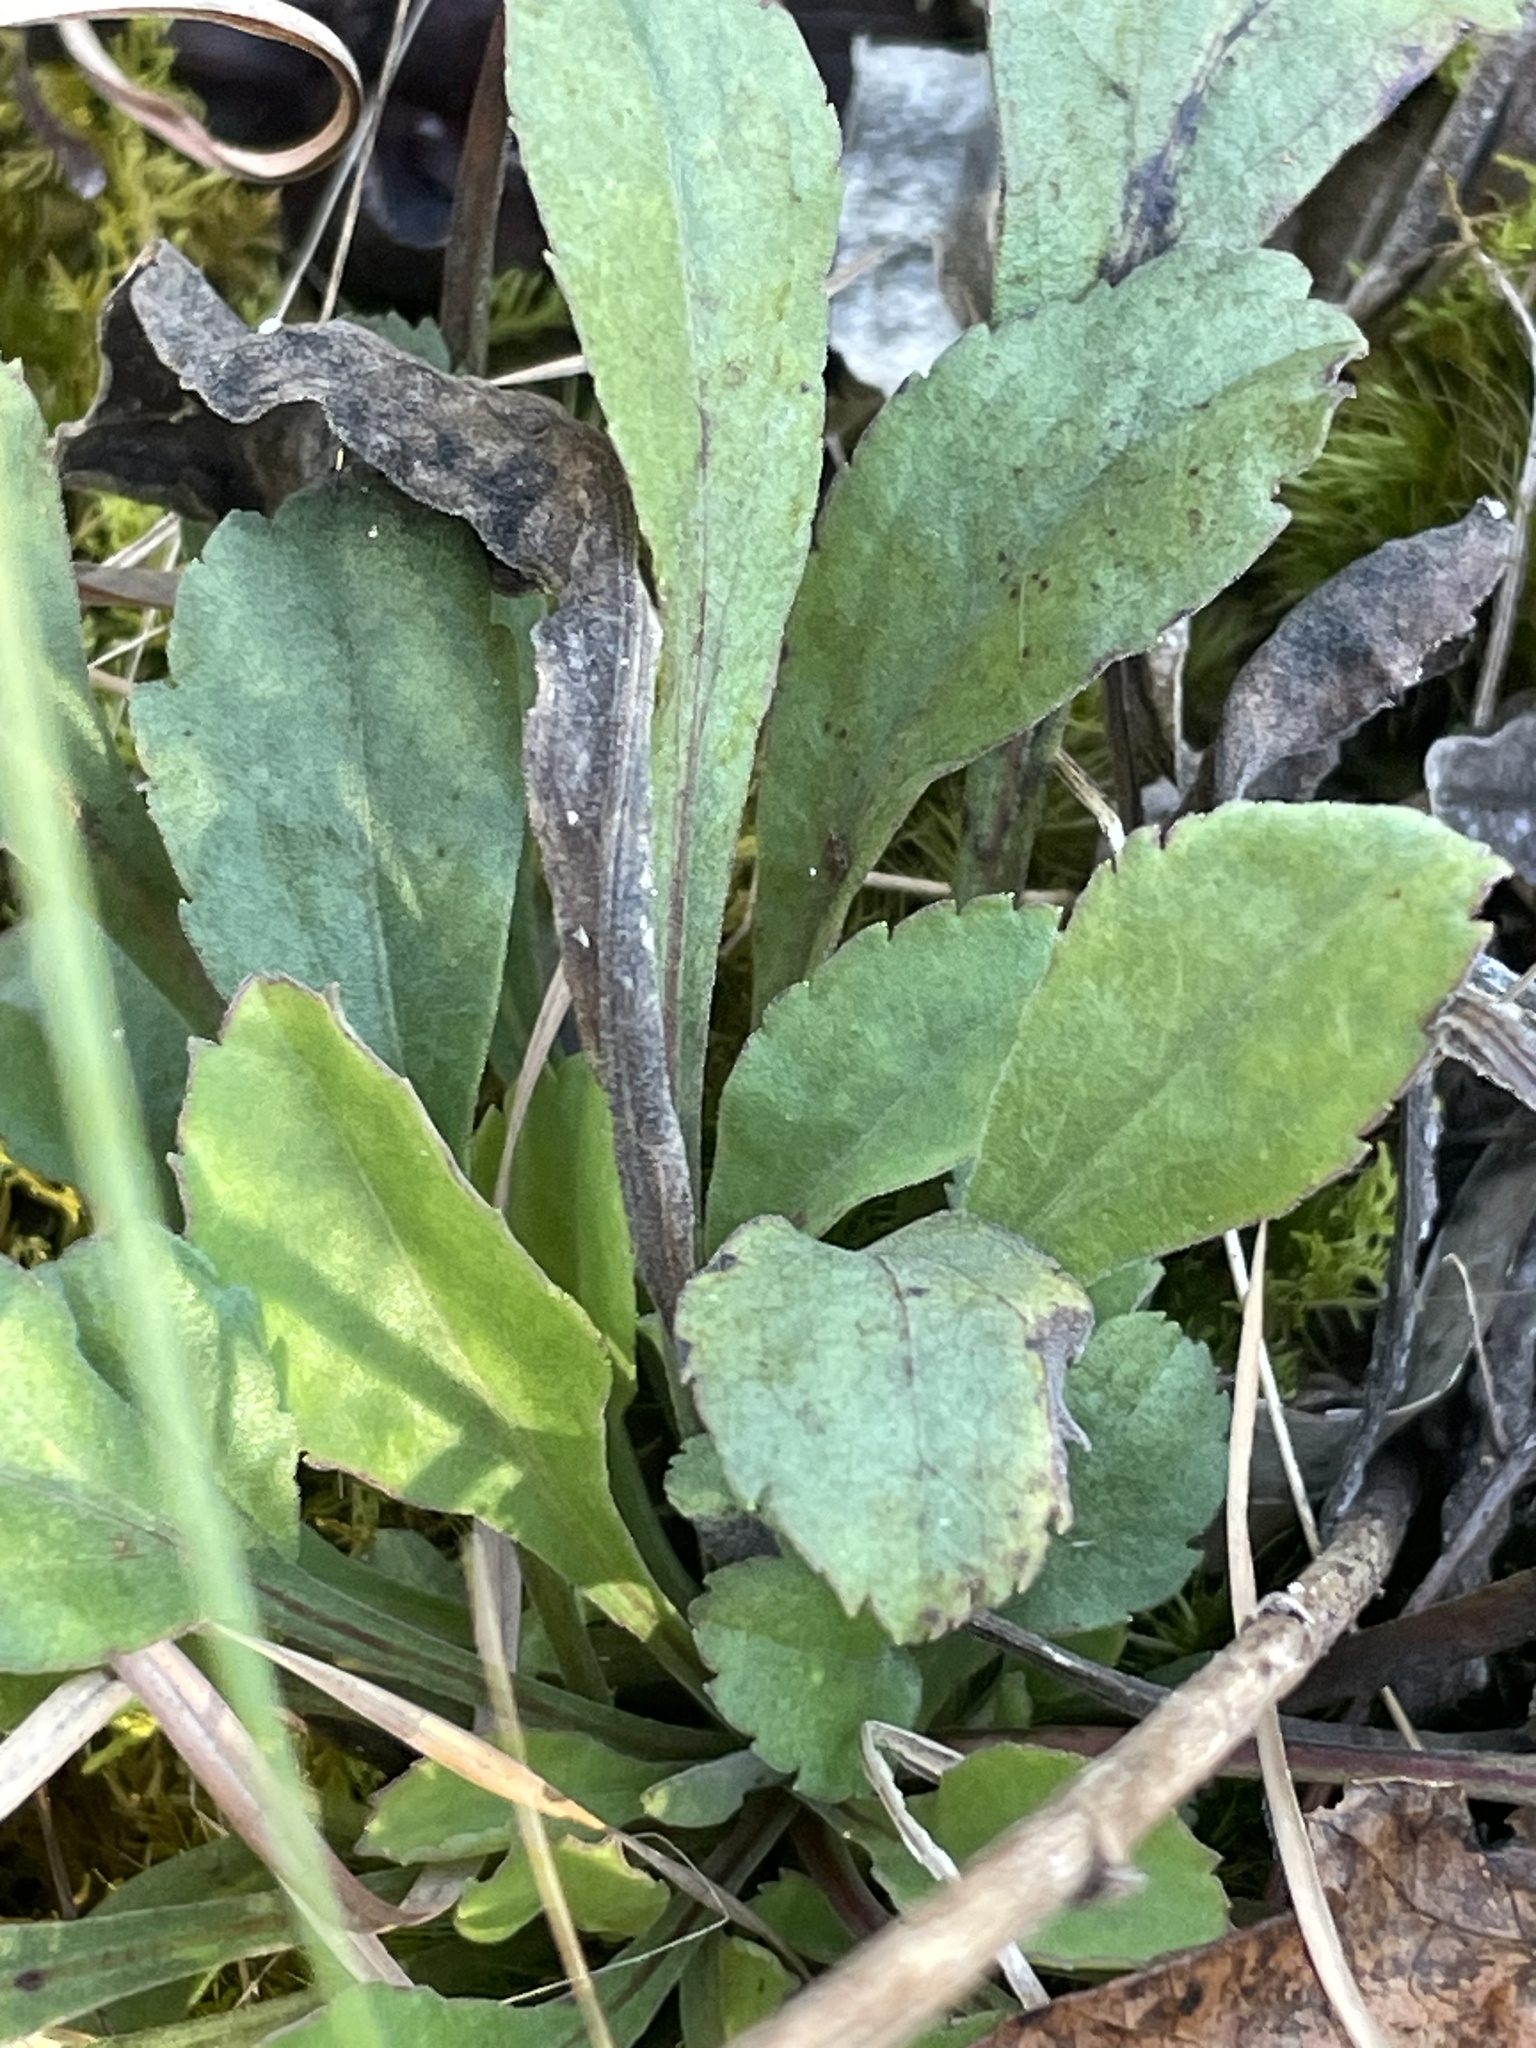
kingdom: Plantae
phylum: Tracheophyta
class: Magnoliopsida
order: Asterales
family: Asteraceae
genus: Solidago
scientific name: Solidago nemoralis
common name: Grey goldenrod
